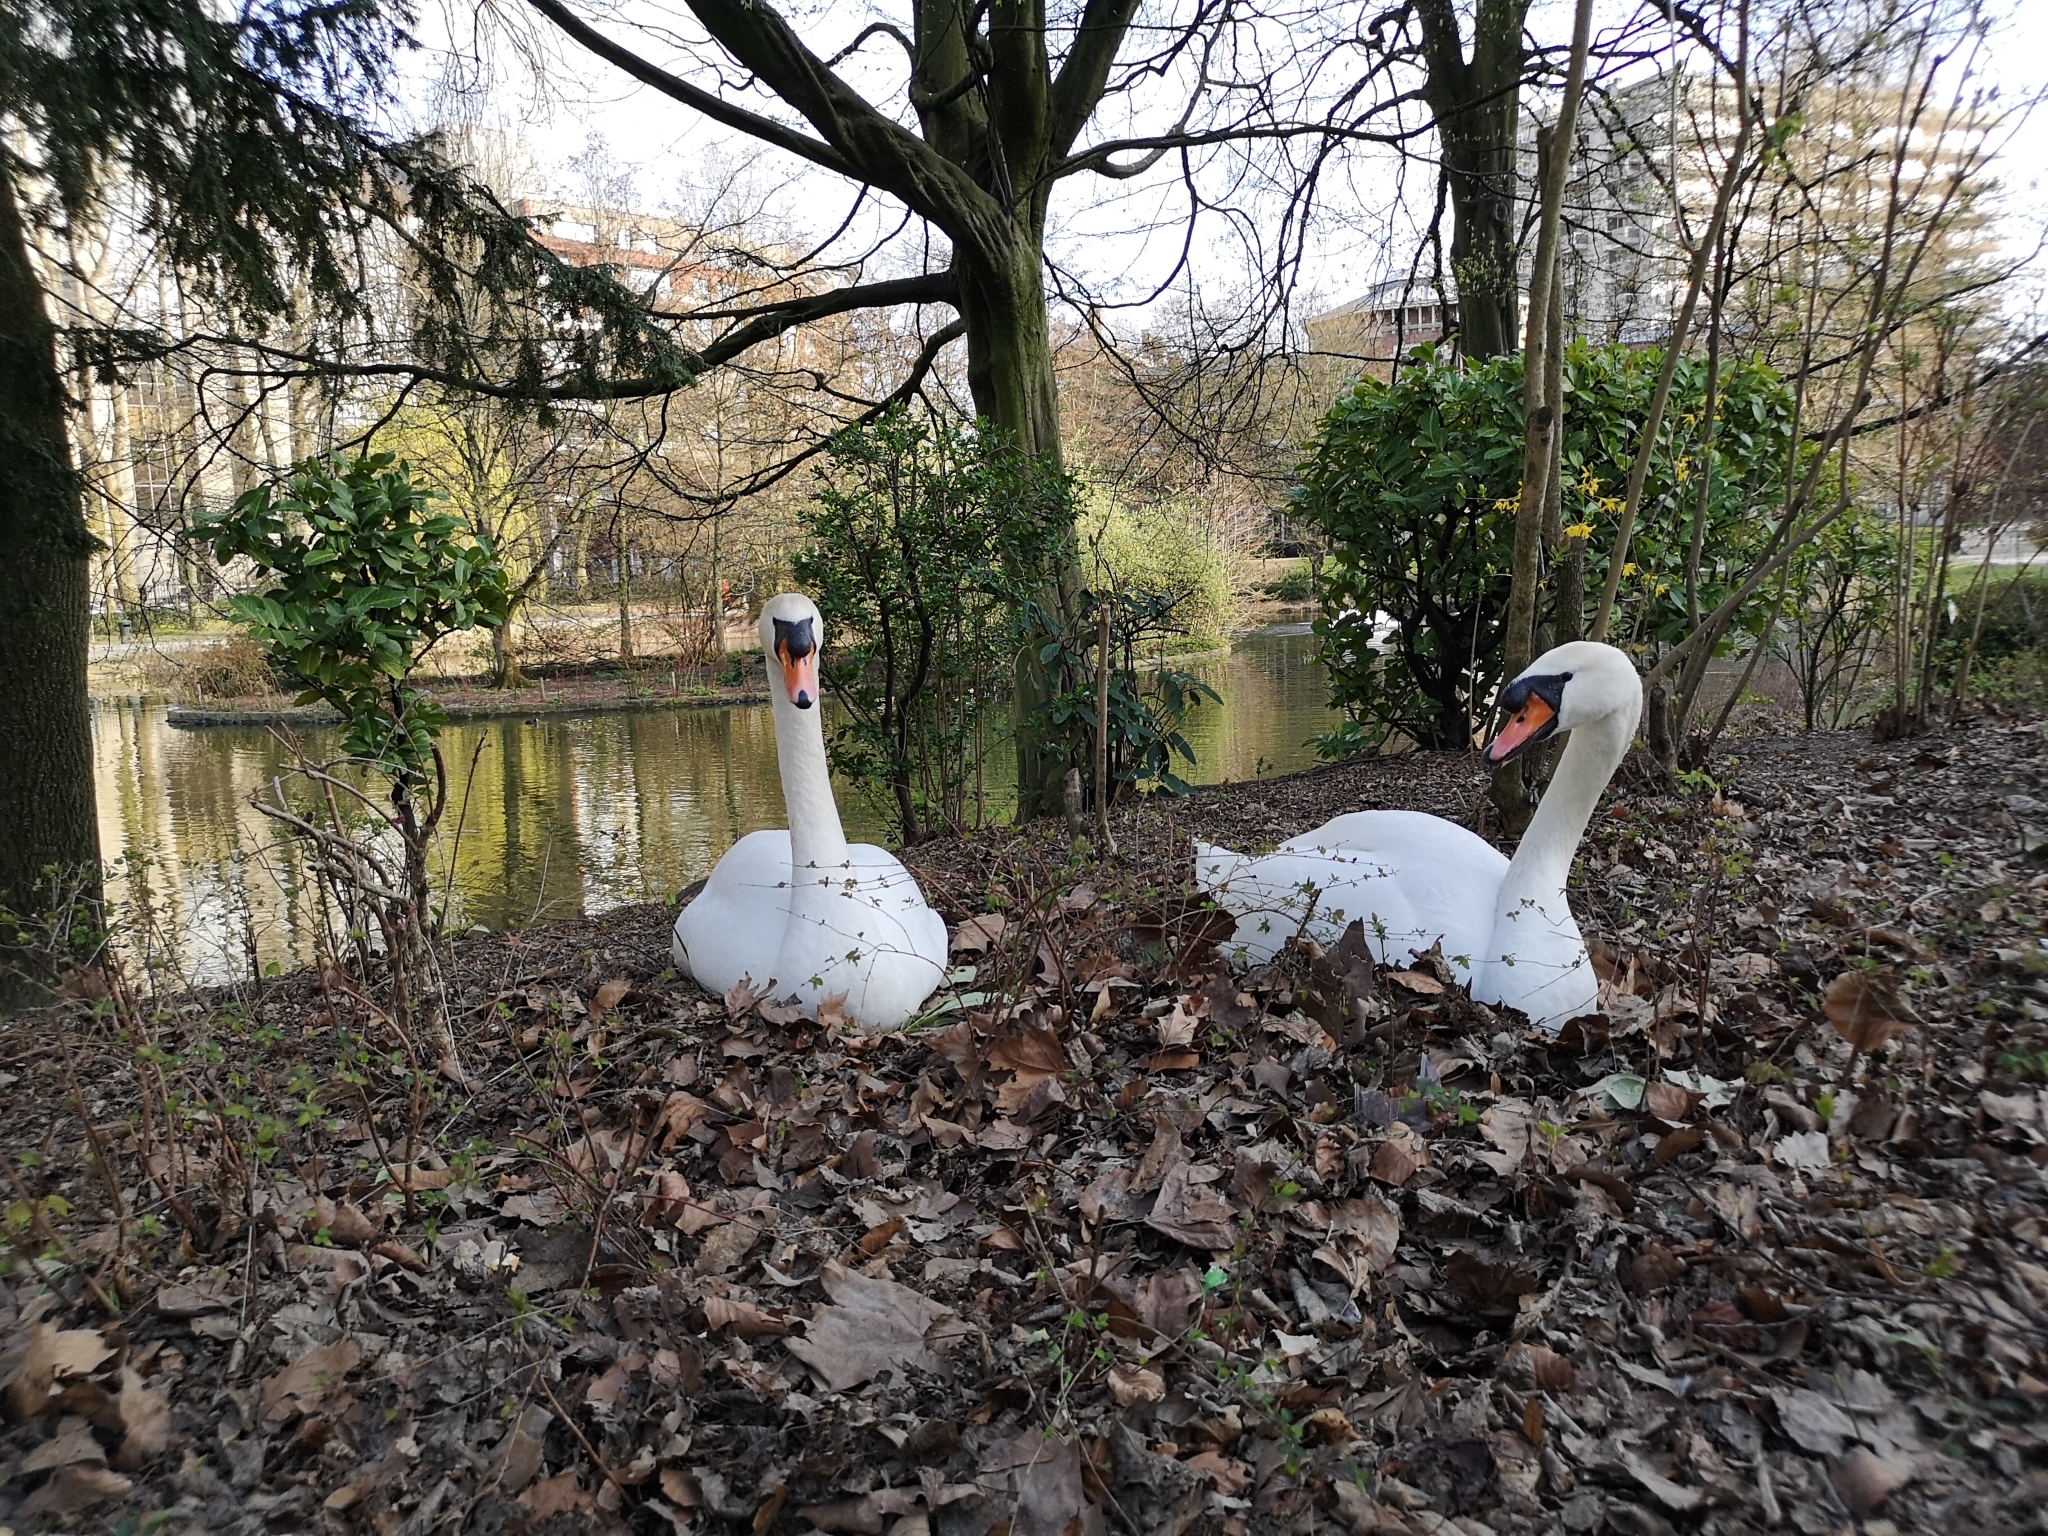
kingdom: Animalia
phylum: Chordata
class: Aves
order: Anseriformes
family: Anatidae
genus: Cygnus
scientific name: Cygnus olor
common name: Mute swan
